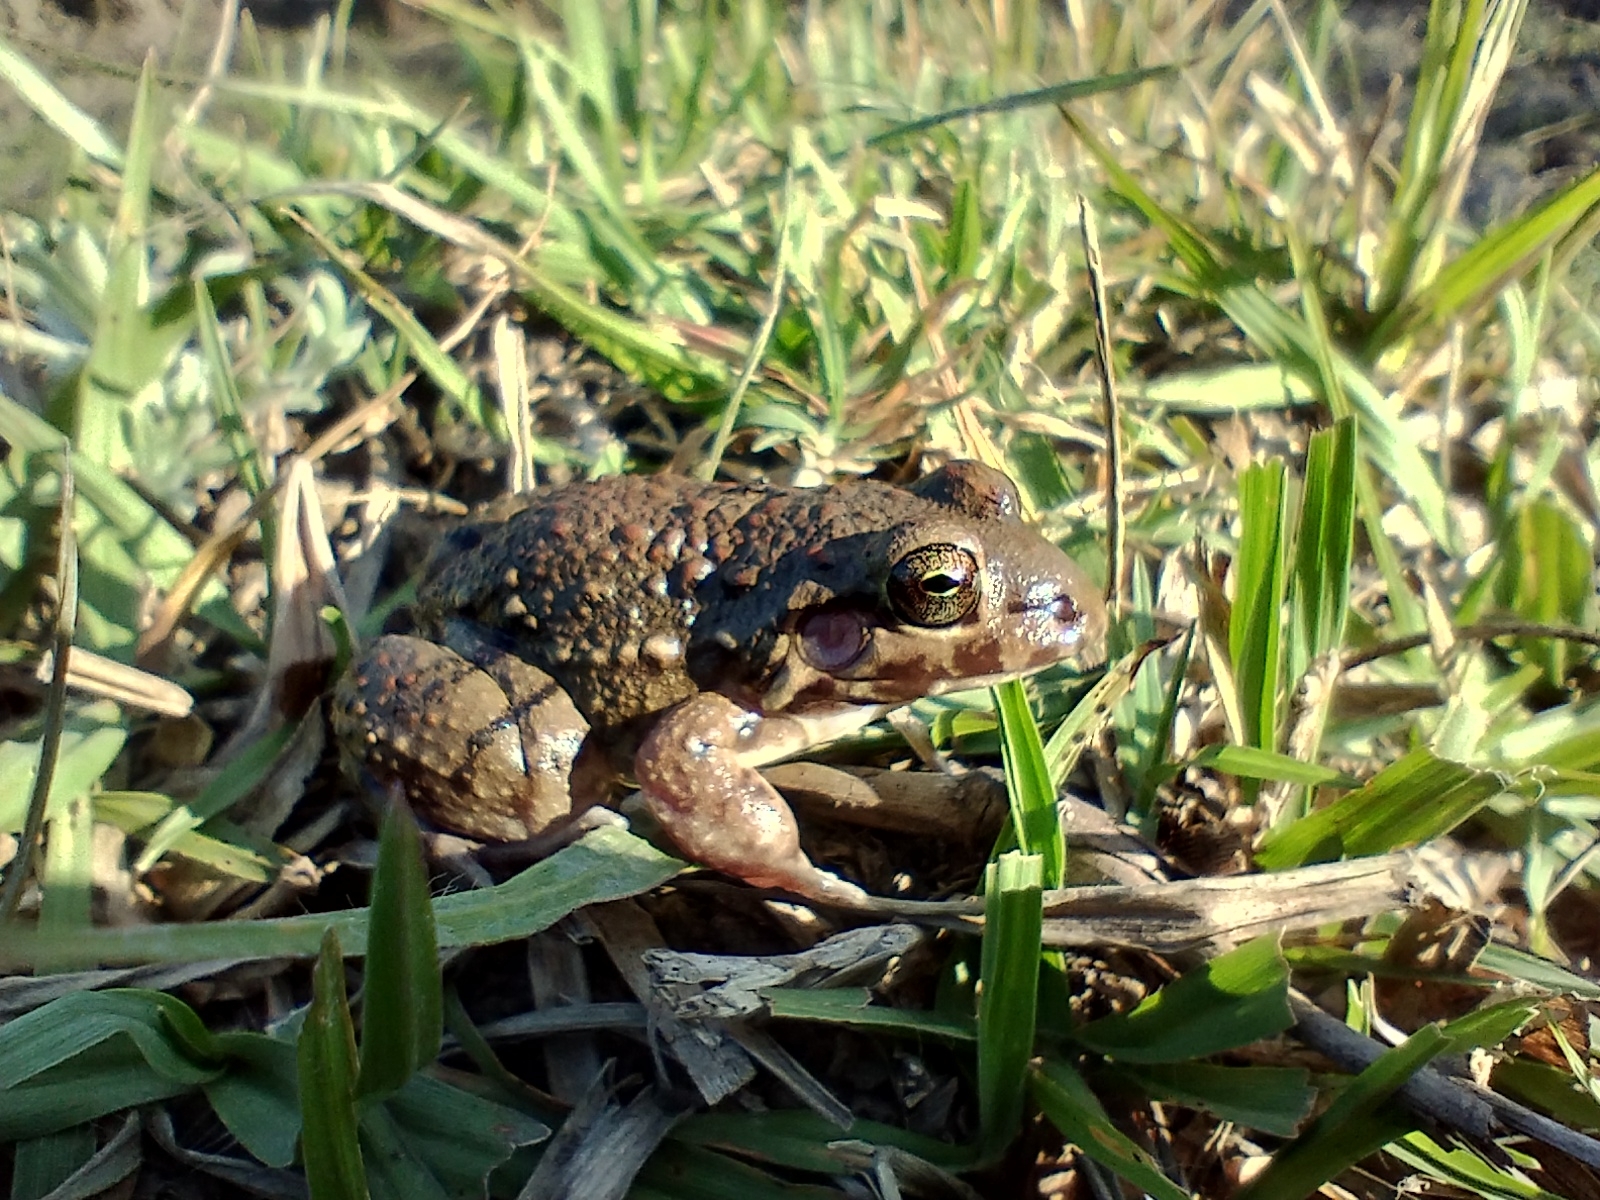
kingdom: Animalia
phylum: Chordata
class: Amphibia
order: Anura
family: Leptodactylidae
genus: Leptodactylus
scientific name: Leptodactylus bufonius
